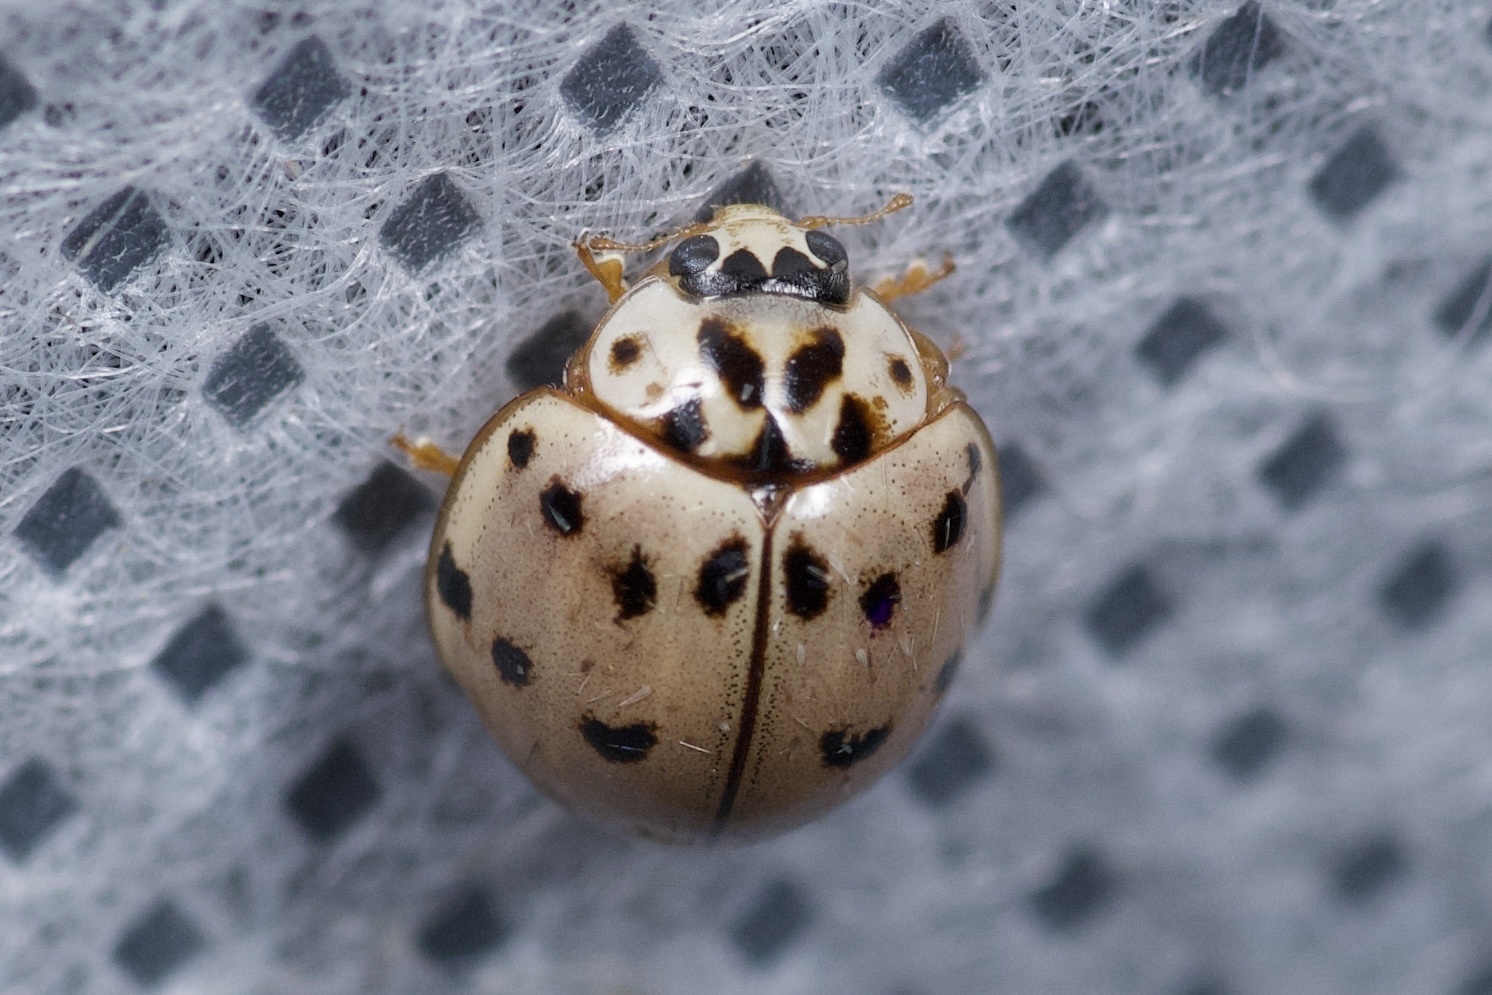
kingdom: Animalia
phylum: Arthropoda
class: Insecta
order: Coleoptera
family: Coccinellidae
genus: Olla
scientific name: Olla v-nigrum
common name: Ashy gray lady beetle
